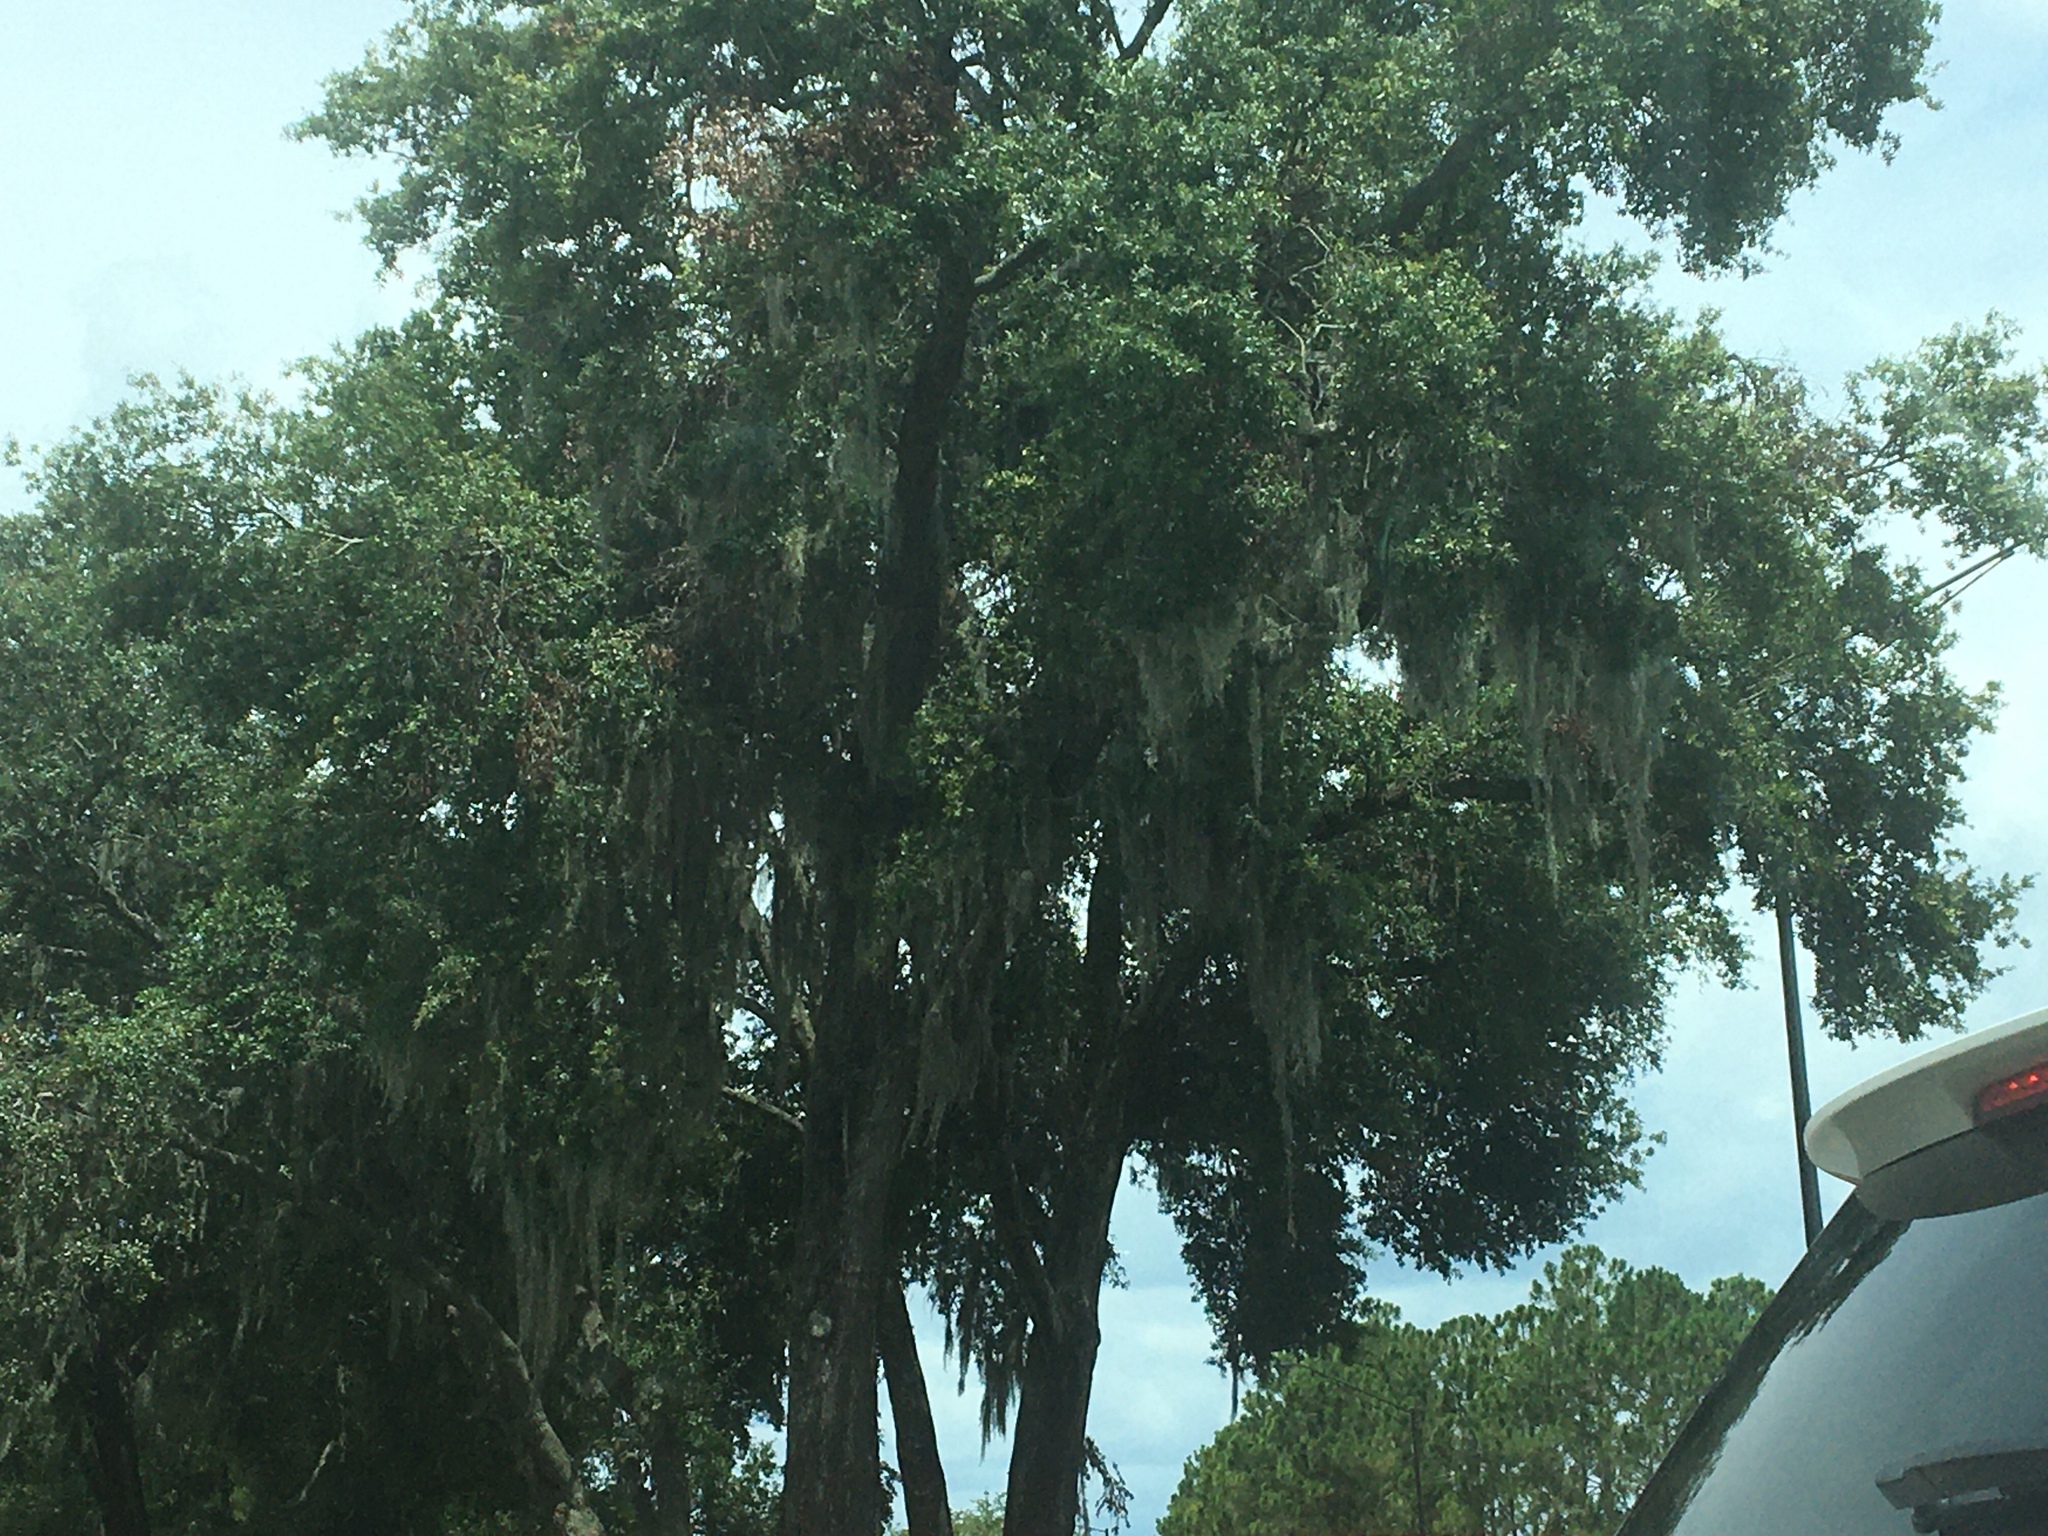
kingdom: Plantae
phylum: Tracheophyta
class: Liliopsida
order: Poales
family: Bromeliaceae
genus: Tillandsia
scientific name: Tillandsia usneoides
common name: Spanish moss
